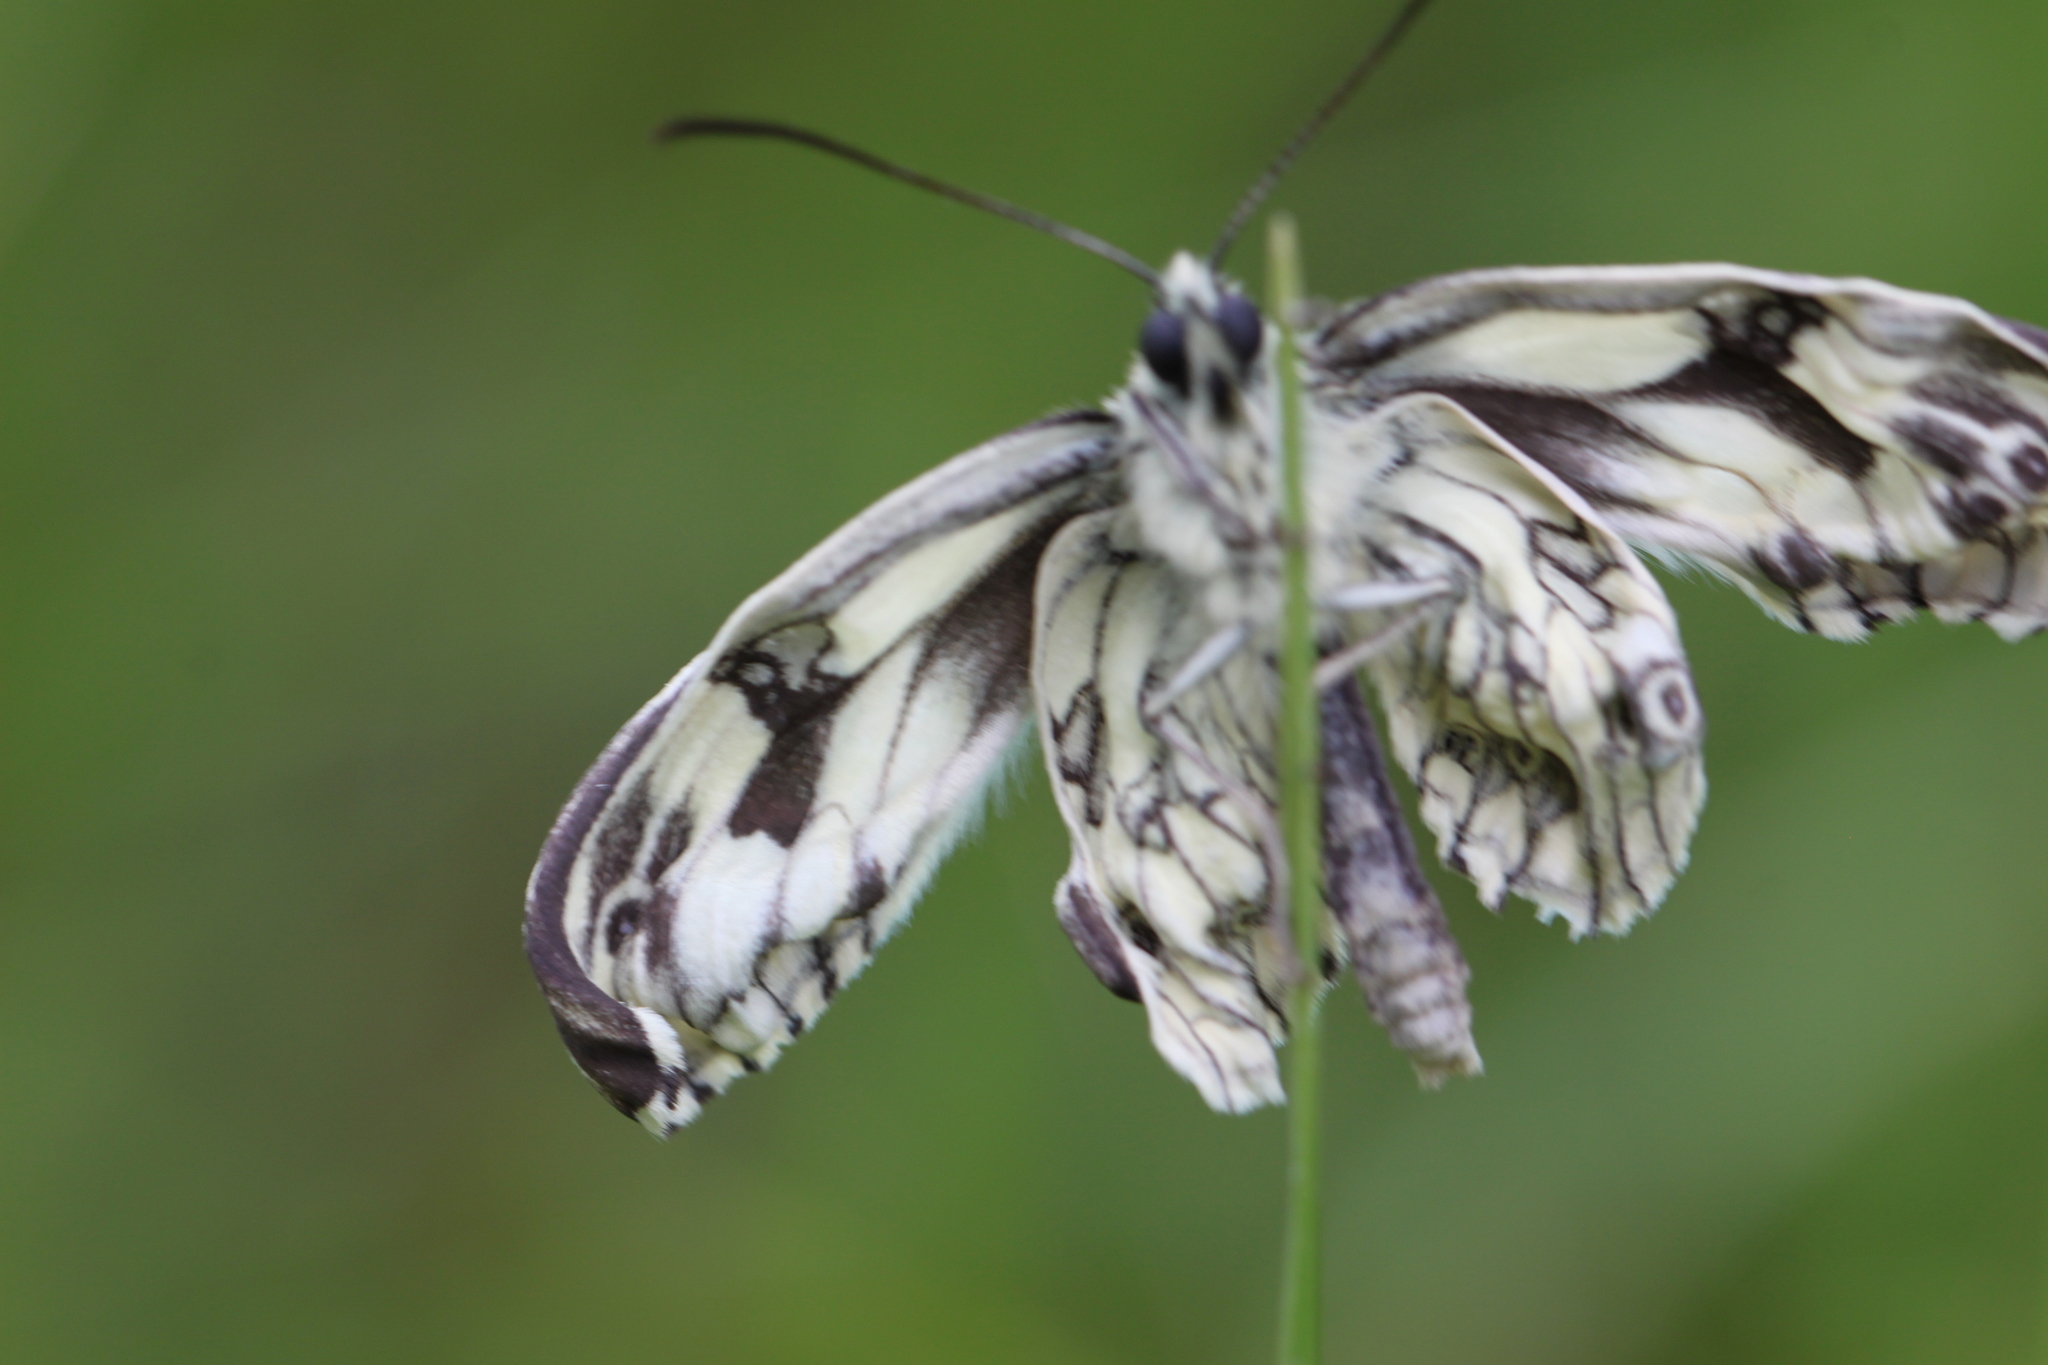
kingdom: Animalia
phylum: Arthropoda
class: Insecta
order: Lepidoptera
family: Nymphalidae
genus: Melanargia
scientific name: Melanargia galathea
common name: Marbled white
